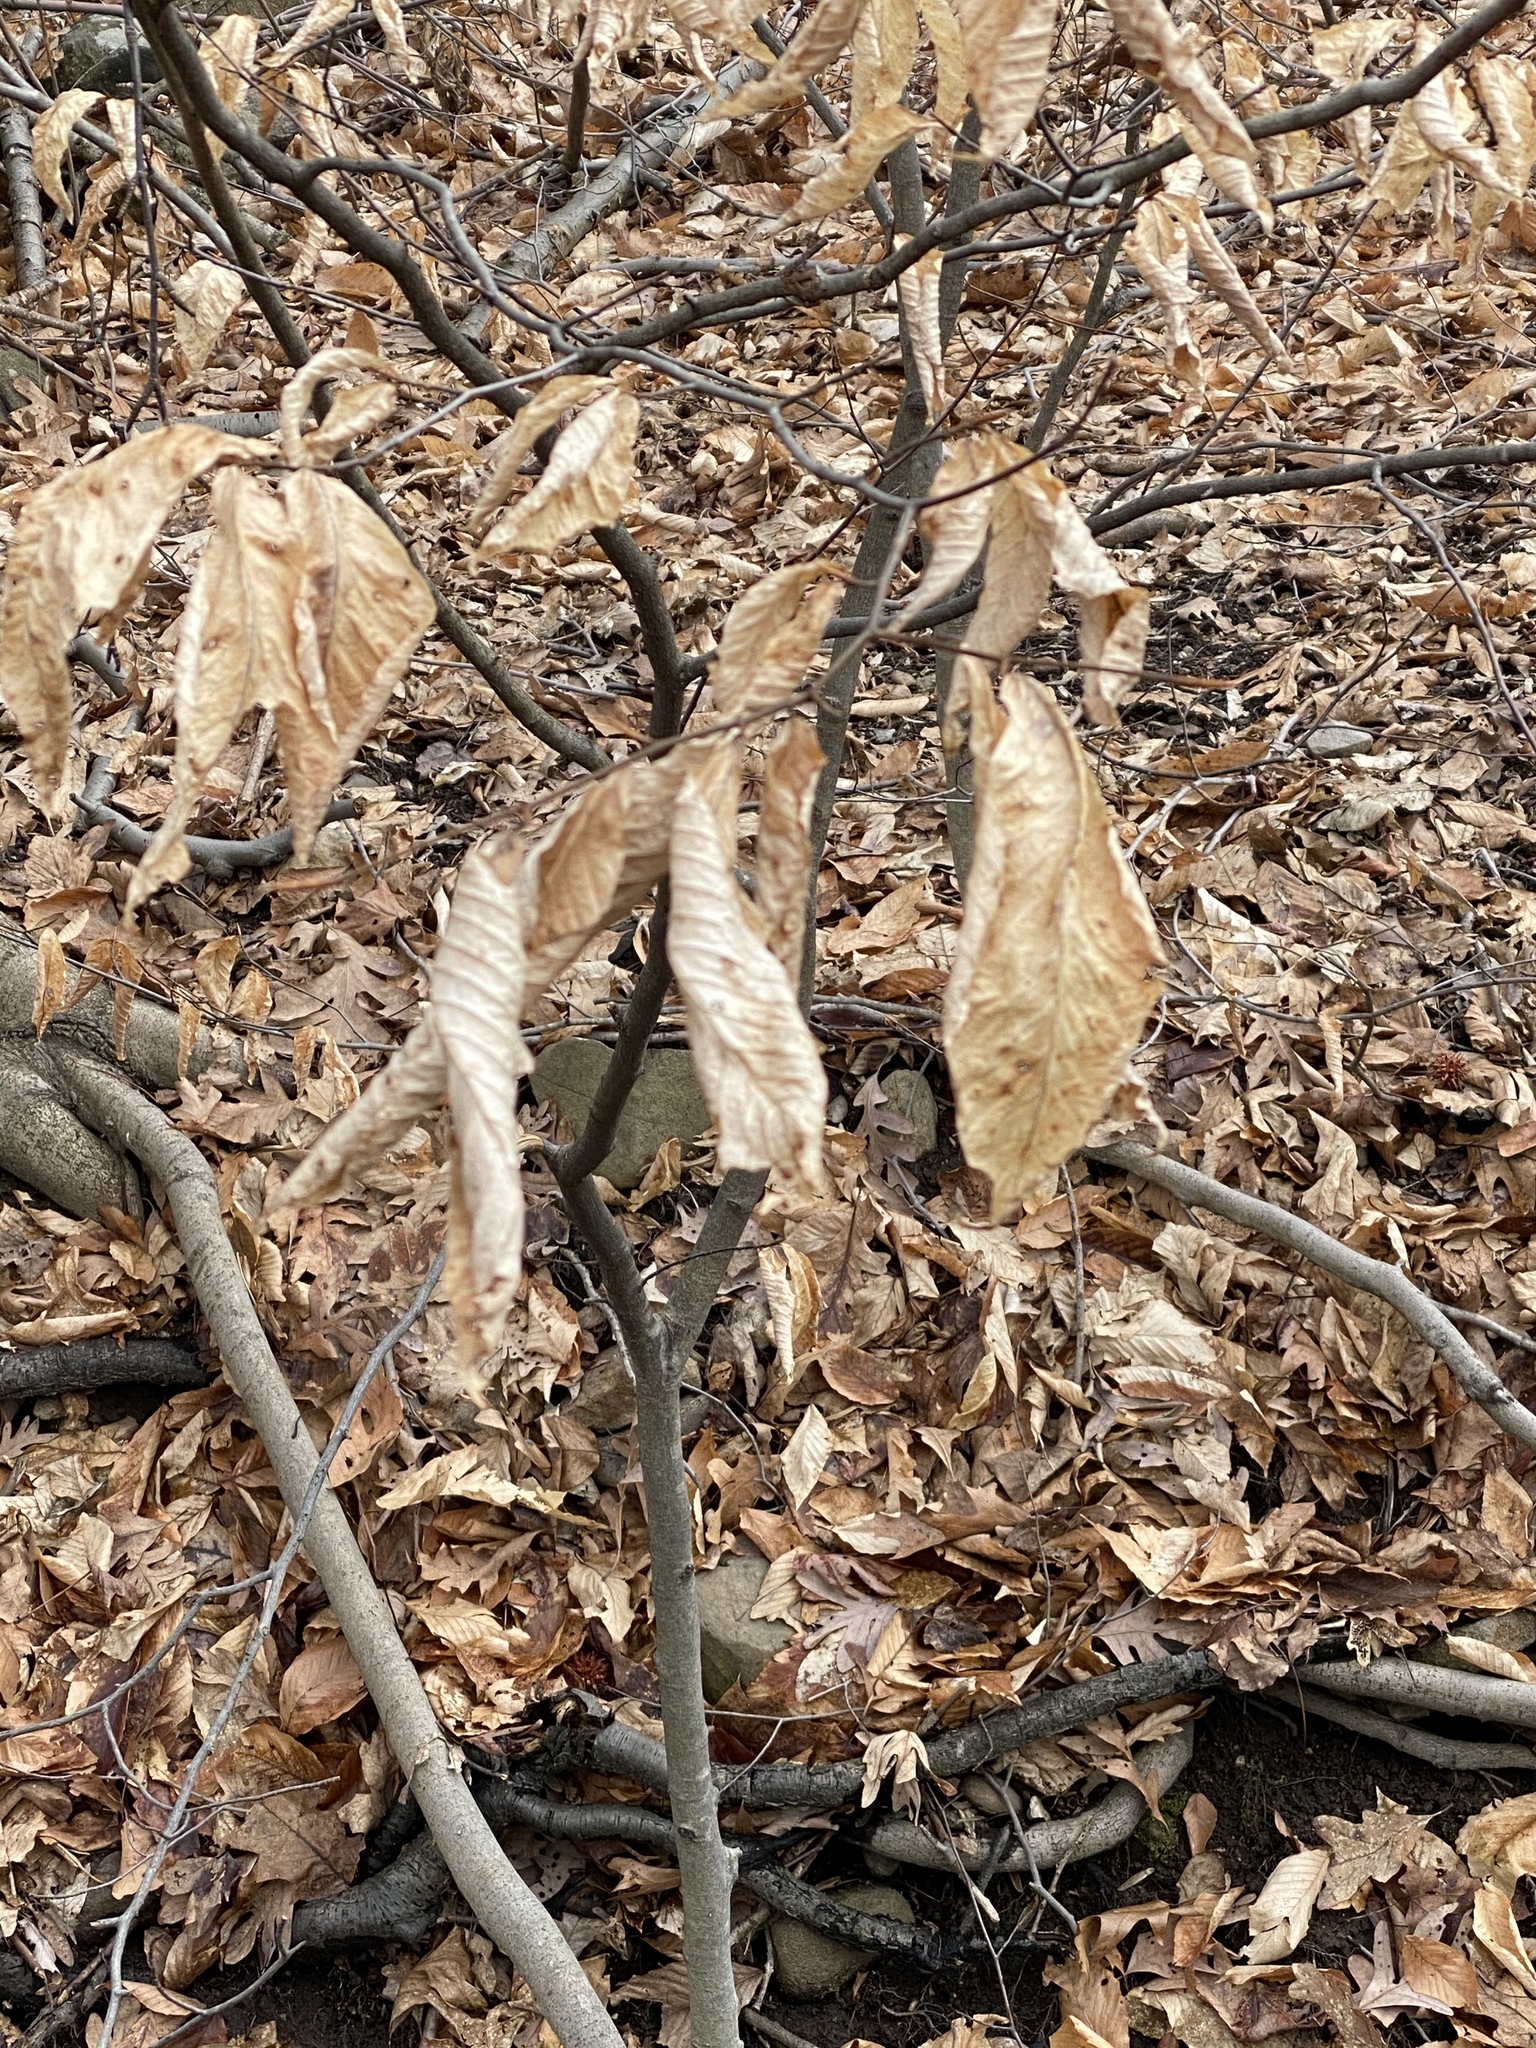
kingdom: Plantae
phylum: Tracheophyta
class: Magnoliopsida
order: Fagales
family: Fagaceae
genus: Fagus
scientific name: Fagus grandifolia
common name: American beech
